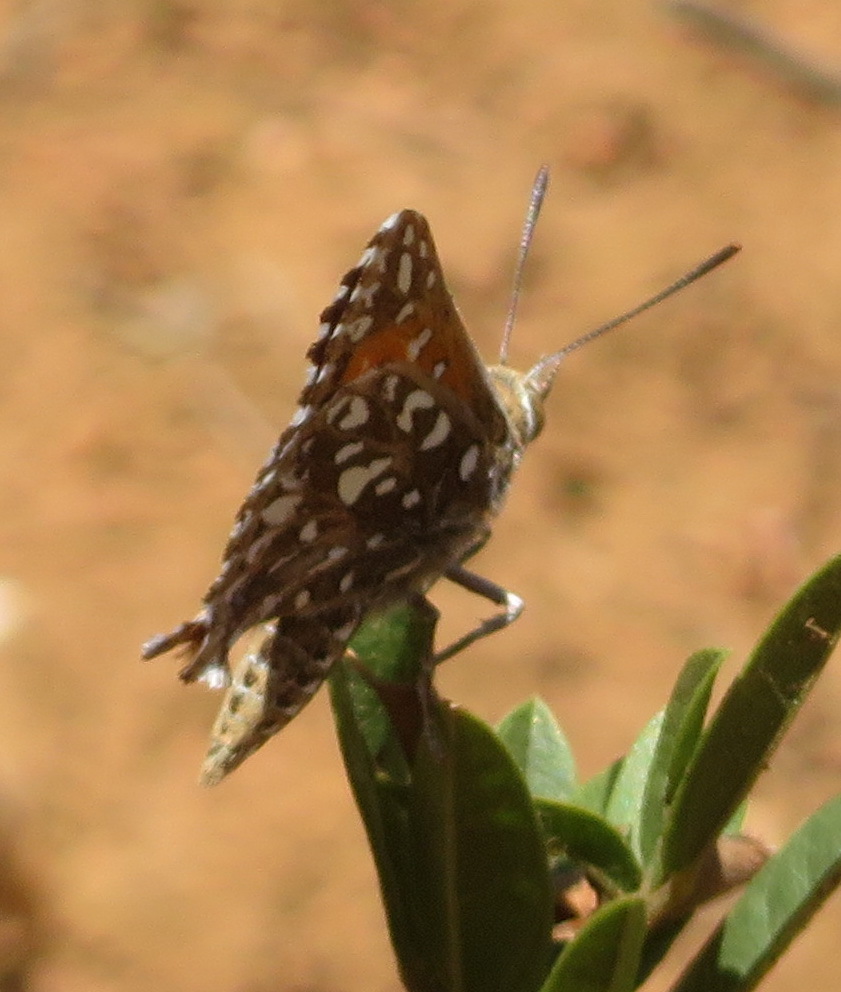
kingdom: Animalia
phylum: Arthropoda
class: Insecta
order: Lepidoptera
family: Lycaenidae
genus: Phasis
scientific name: Phasis macmasteri
